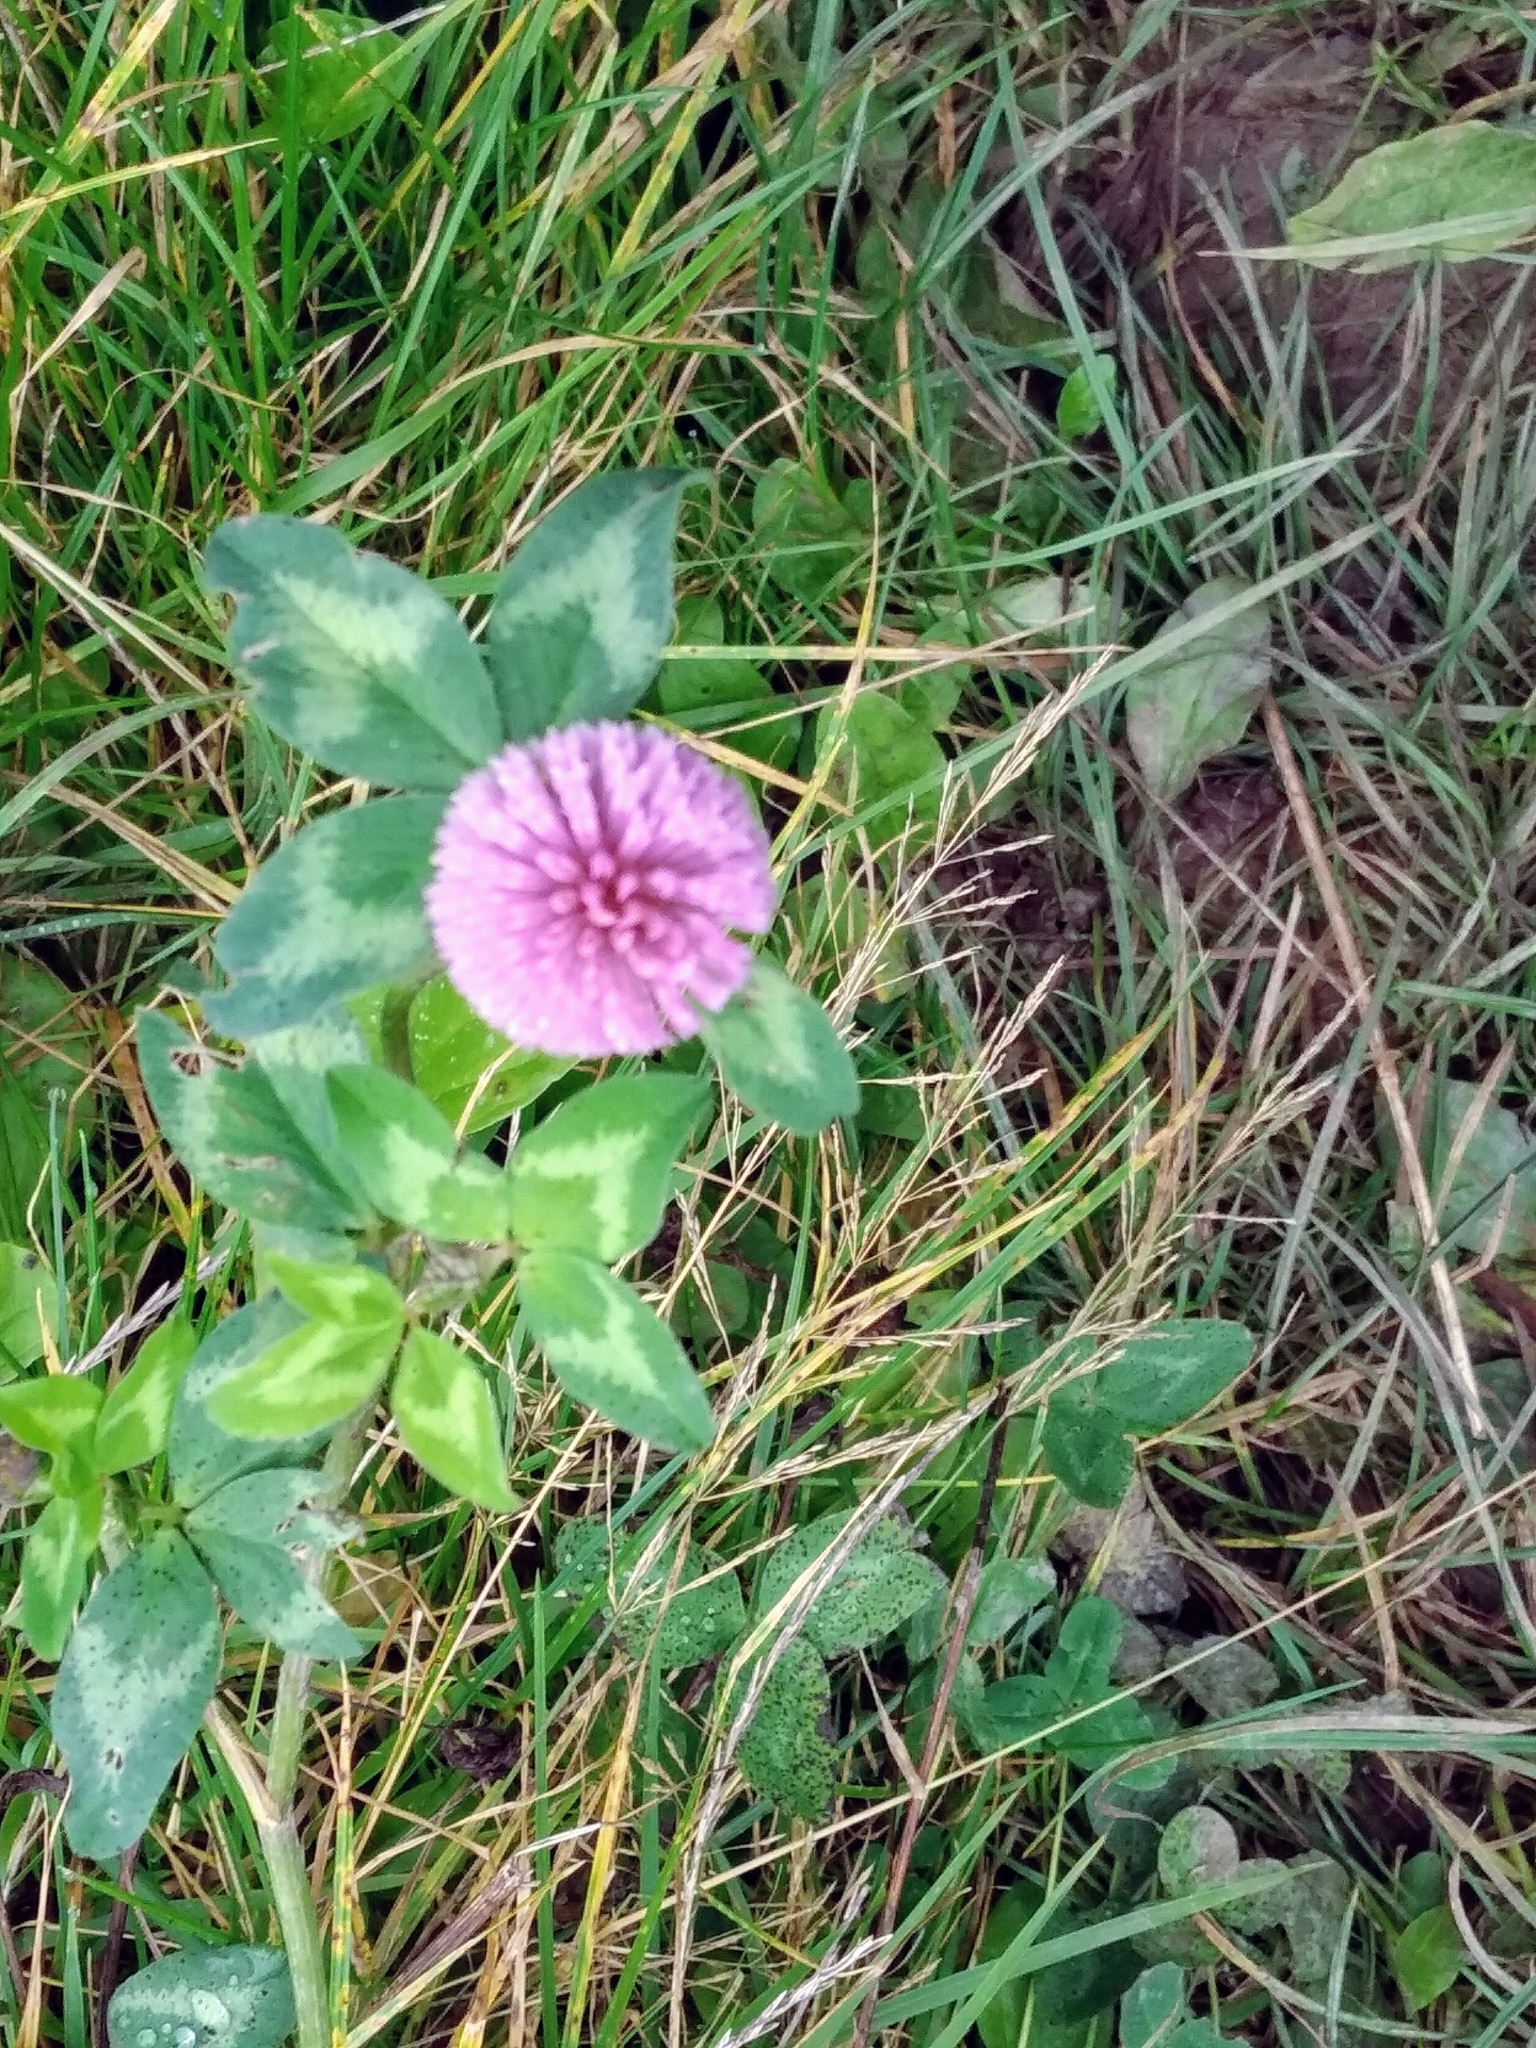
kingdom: Plantae
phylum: Tracheophyta
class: Magnoliopsida
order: Fabales
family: Fabaceae
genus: Trifolium
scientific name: Trifolium pratense
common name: Red clover
